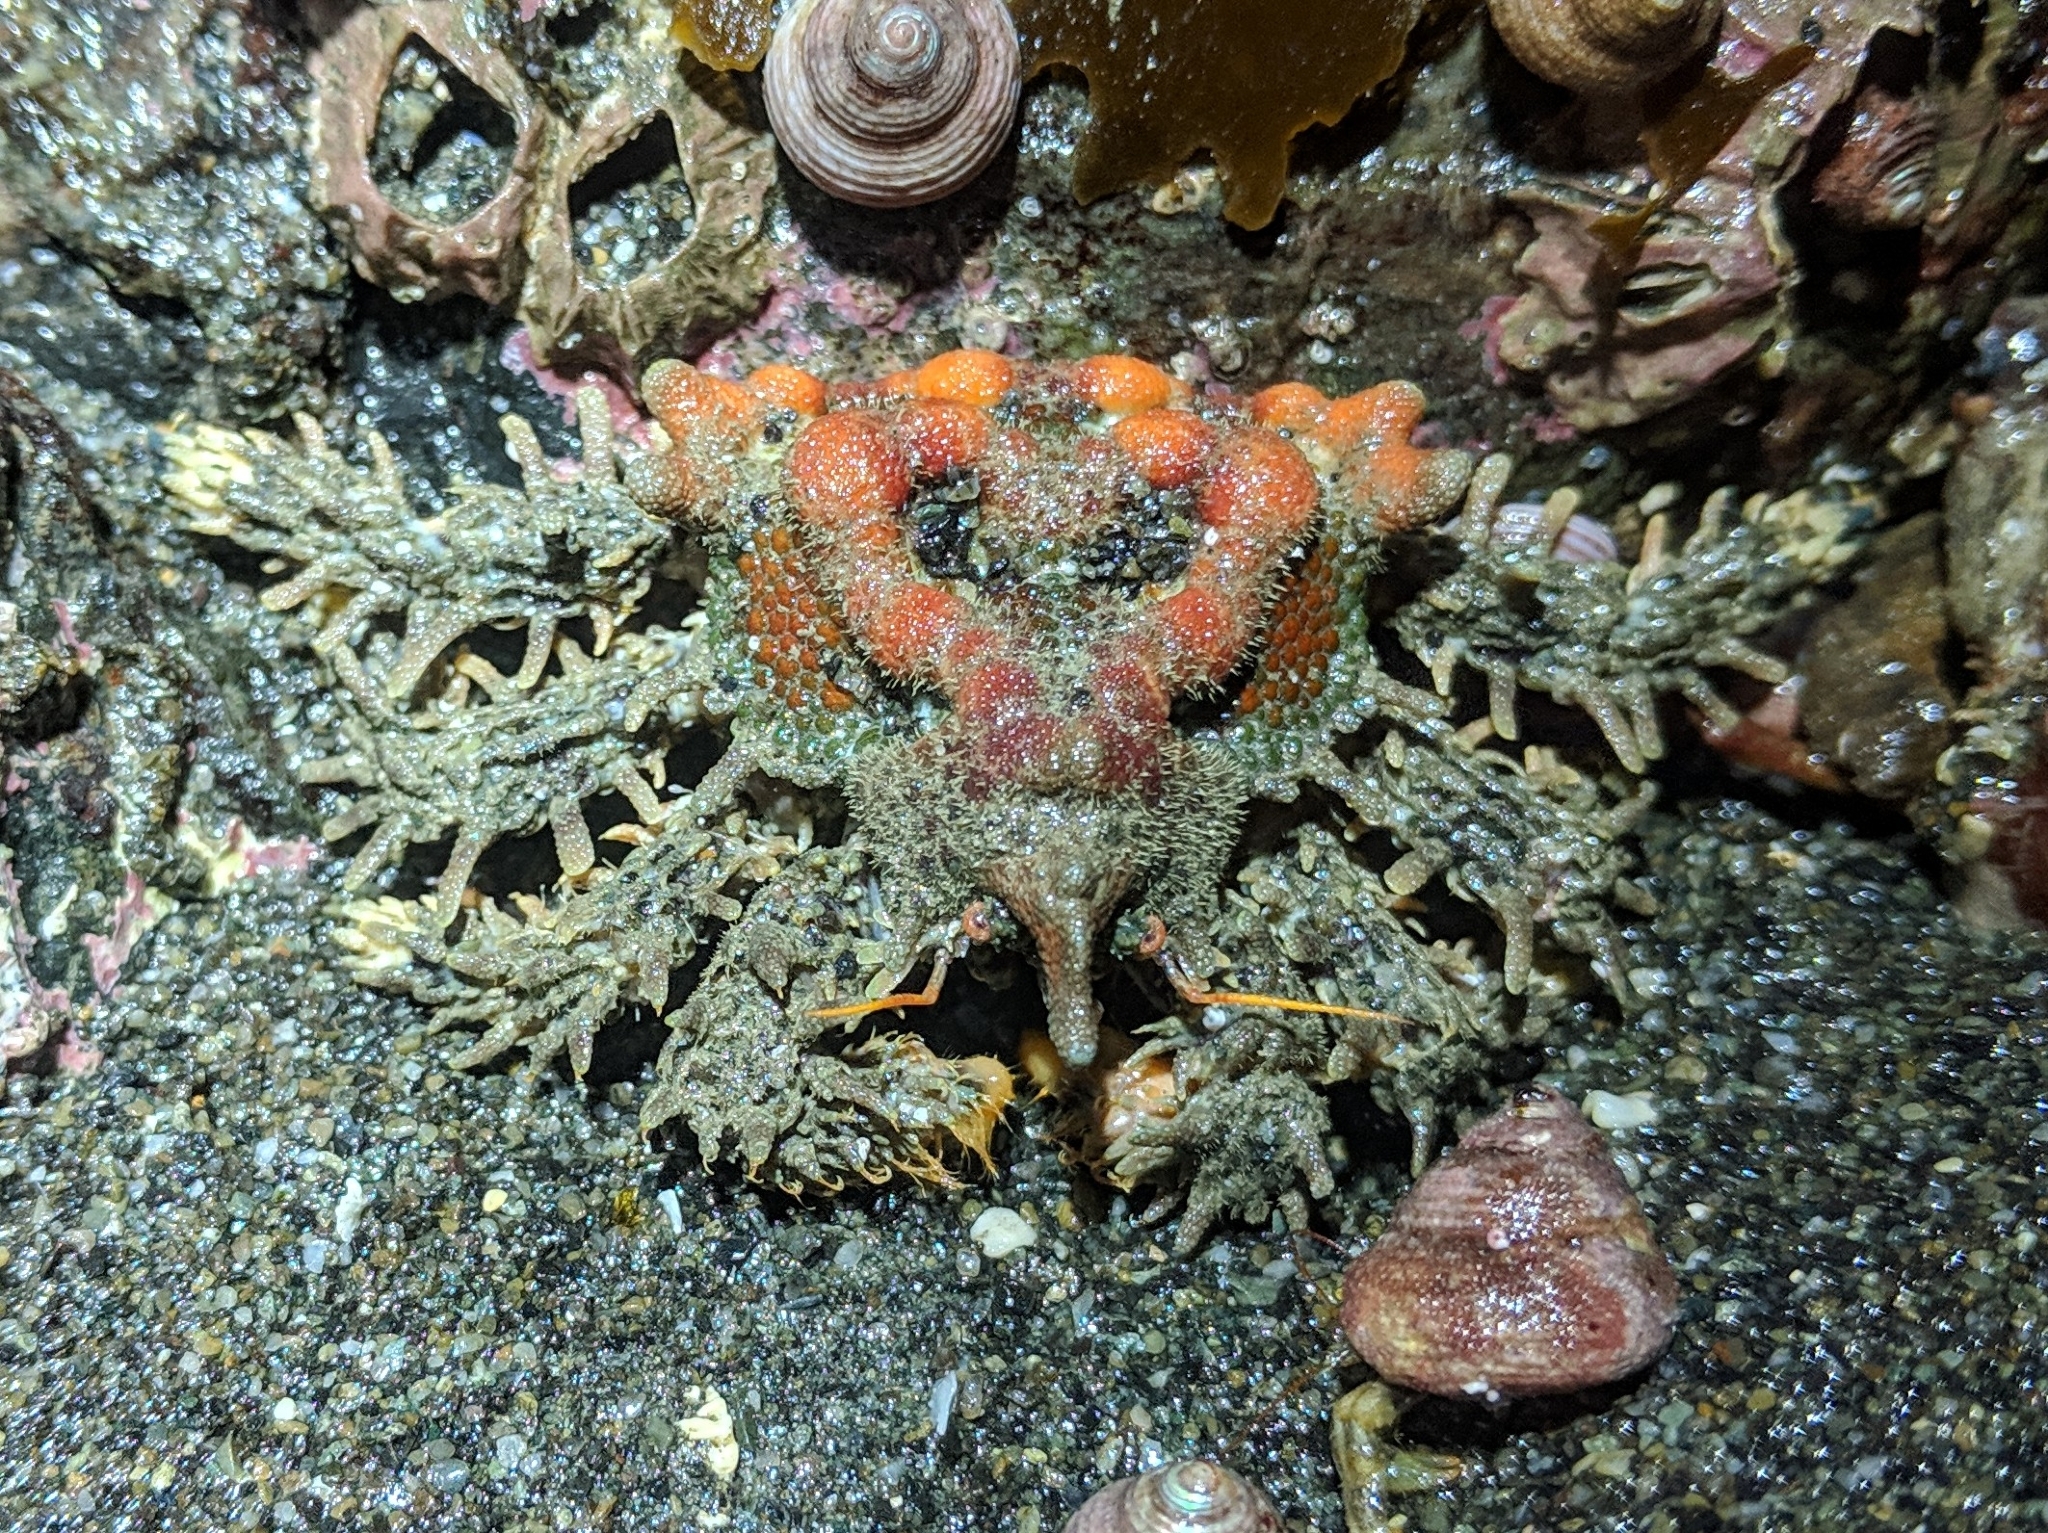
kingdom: Animalia
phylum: Arthropoda
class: Malacostraca
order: Decapoda
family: Lithodidae
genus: Phyllolithodes
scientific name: Phyllolithodes papillosus
